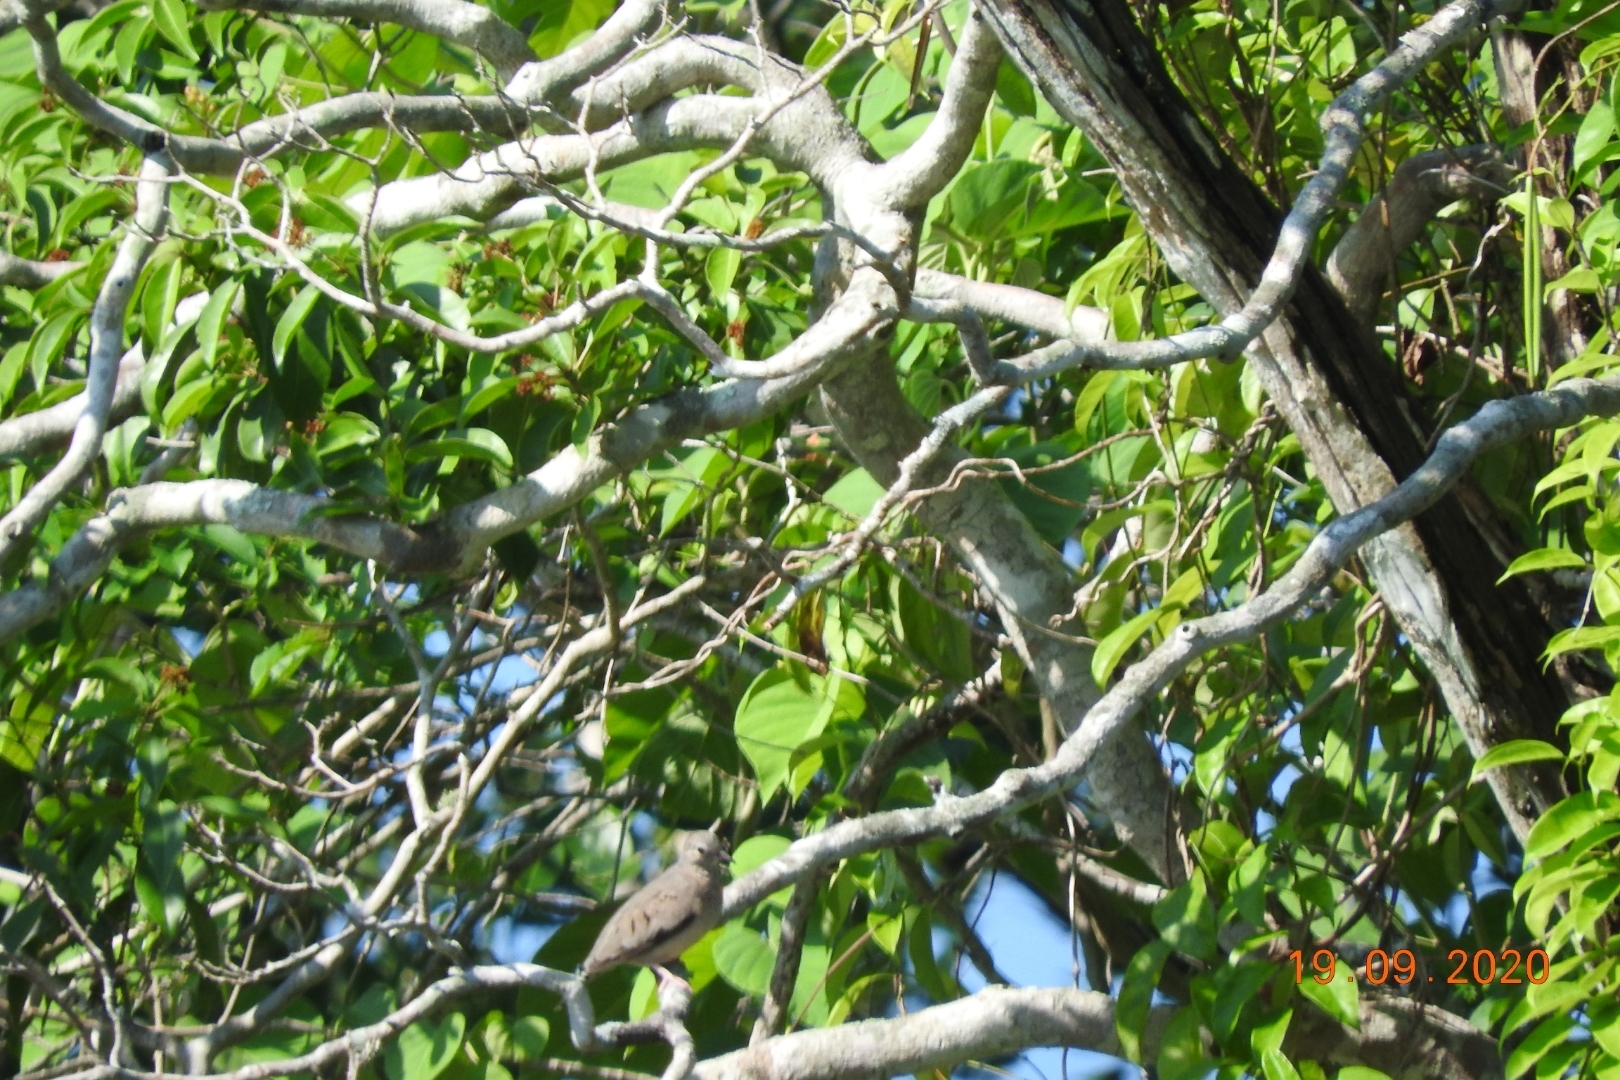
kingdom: Animalia
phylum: Chordata
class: Aves
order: Columbiformes
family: Columbidae
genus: Columbina
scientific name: Columbina passerina
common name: Common ground-dove
